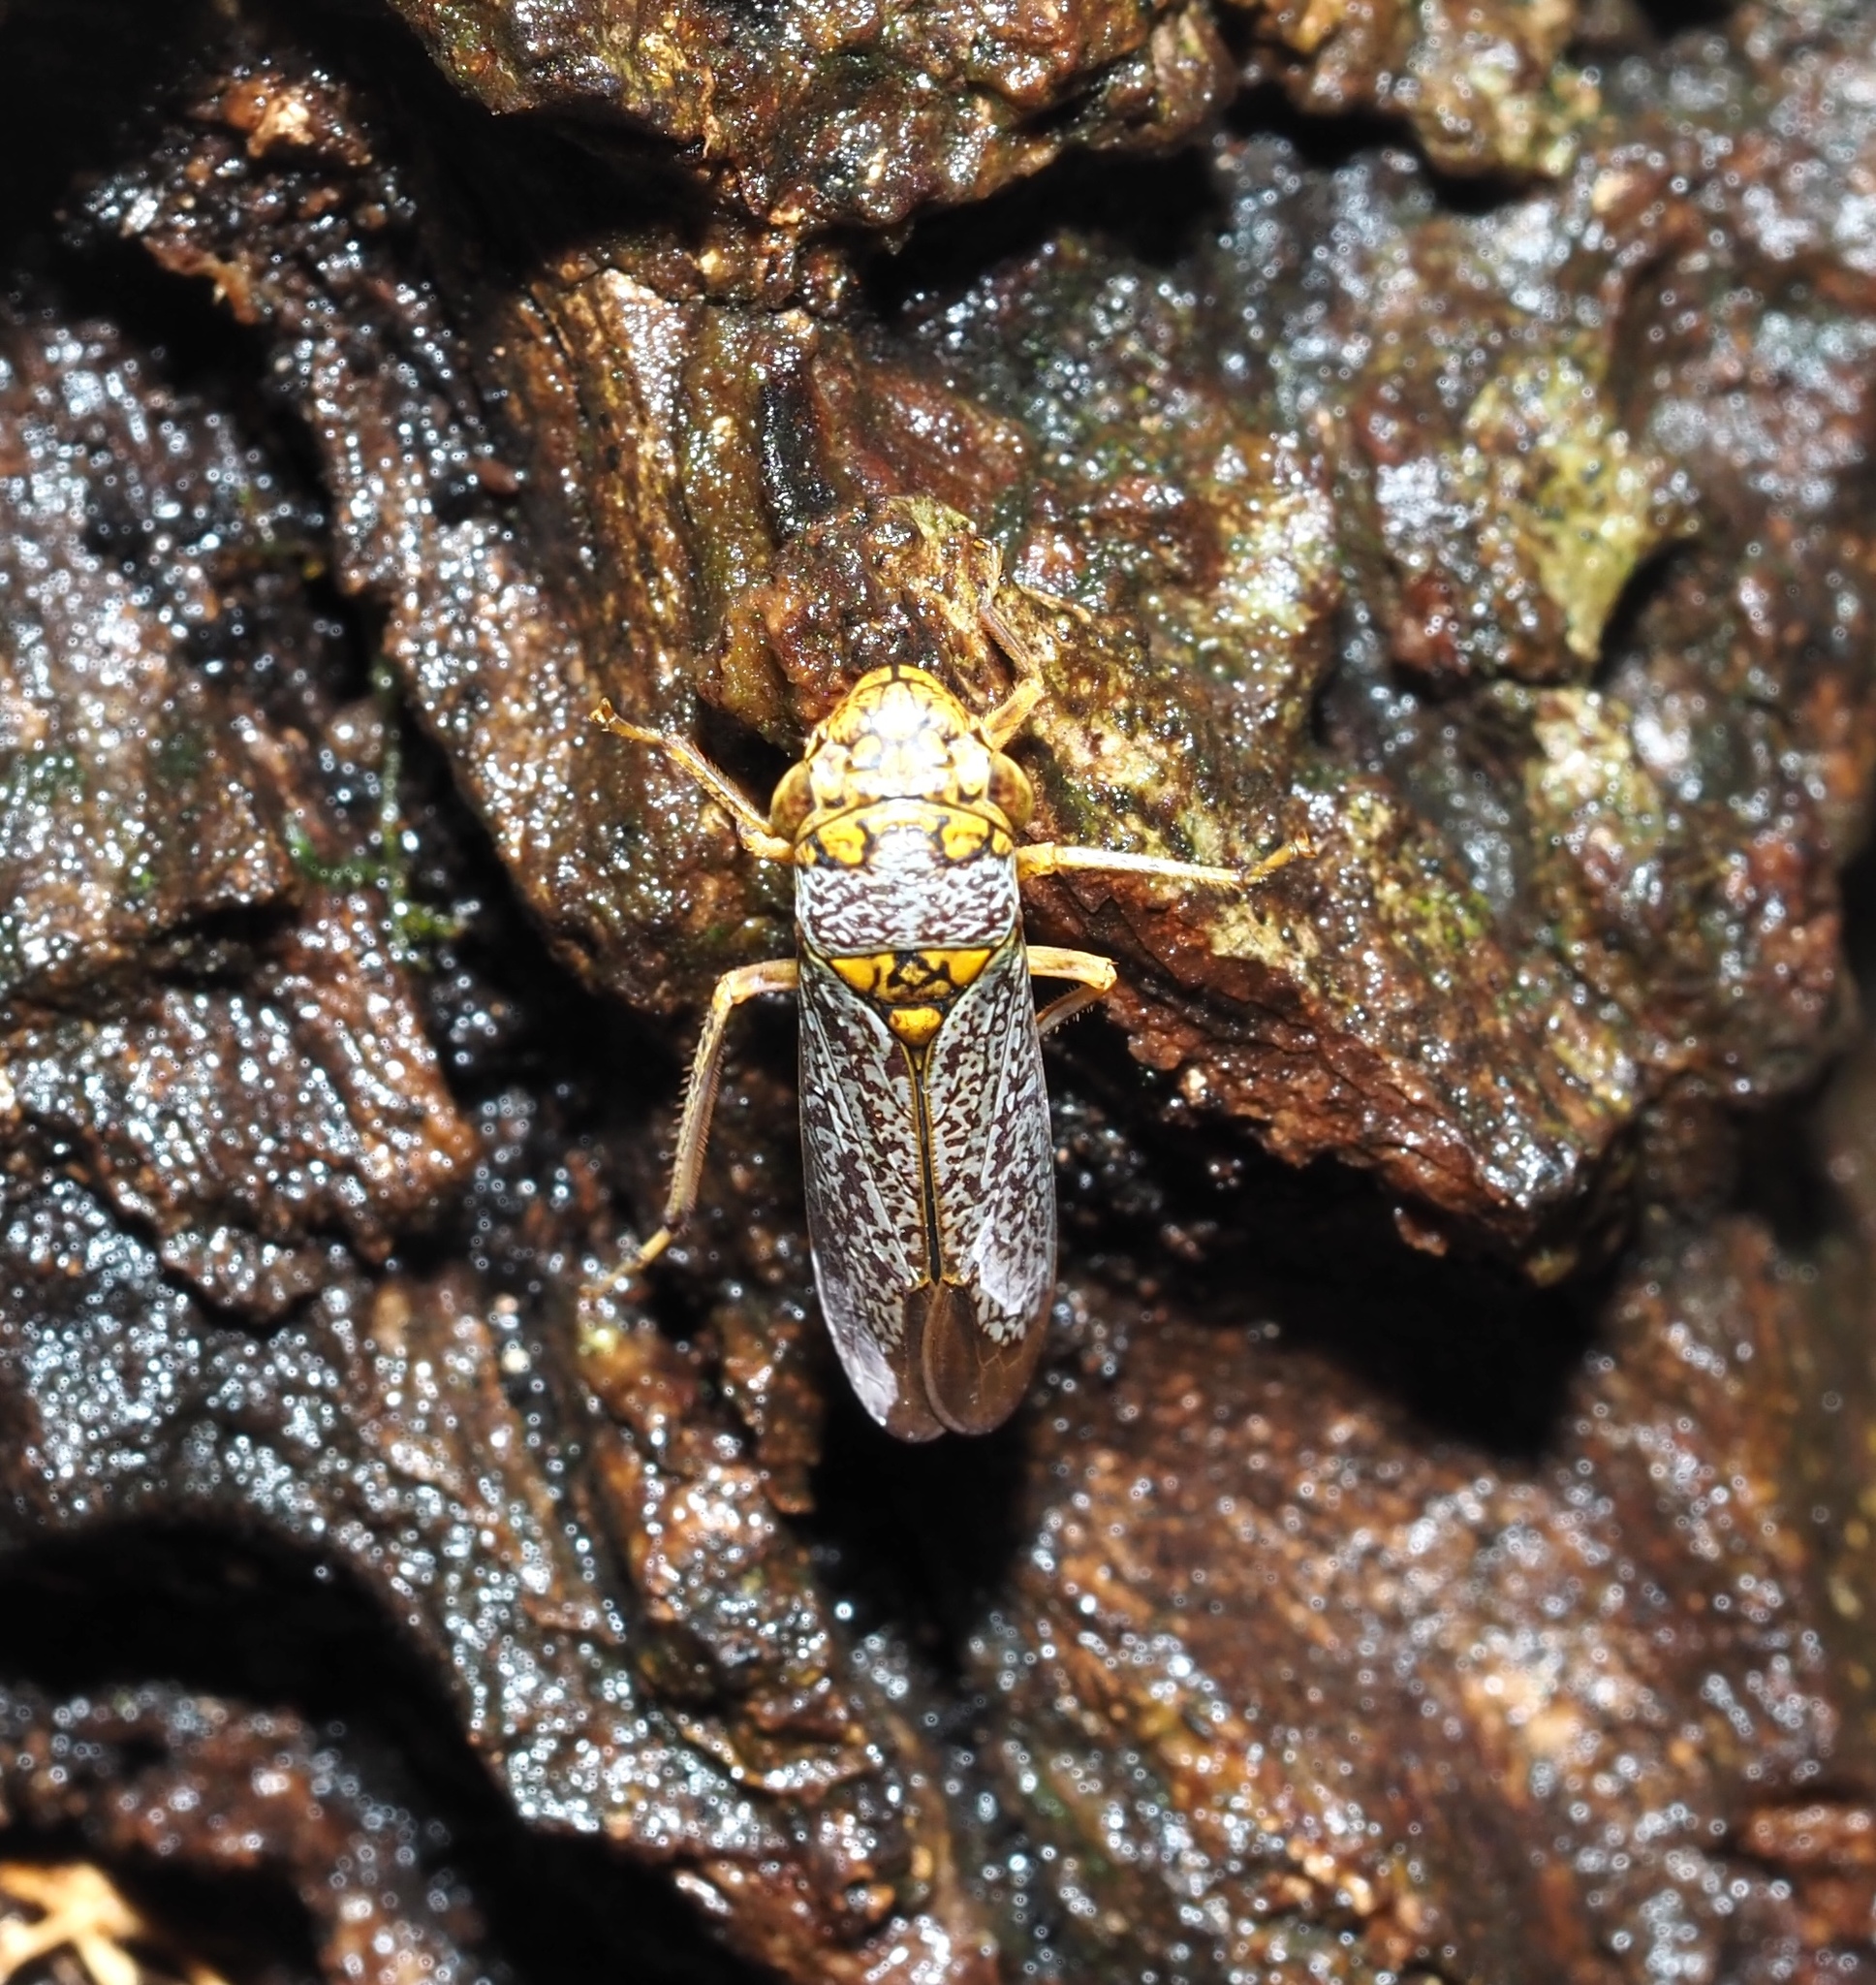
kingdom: Animalia
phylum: Arthropoda
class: Insecta
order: Hemiptera
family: Cicadellidae
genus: Oncometopia
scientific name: Oncometopia orbona
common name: Broad-headed sharpshooter
